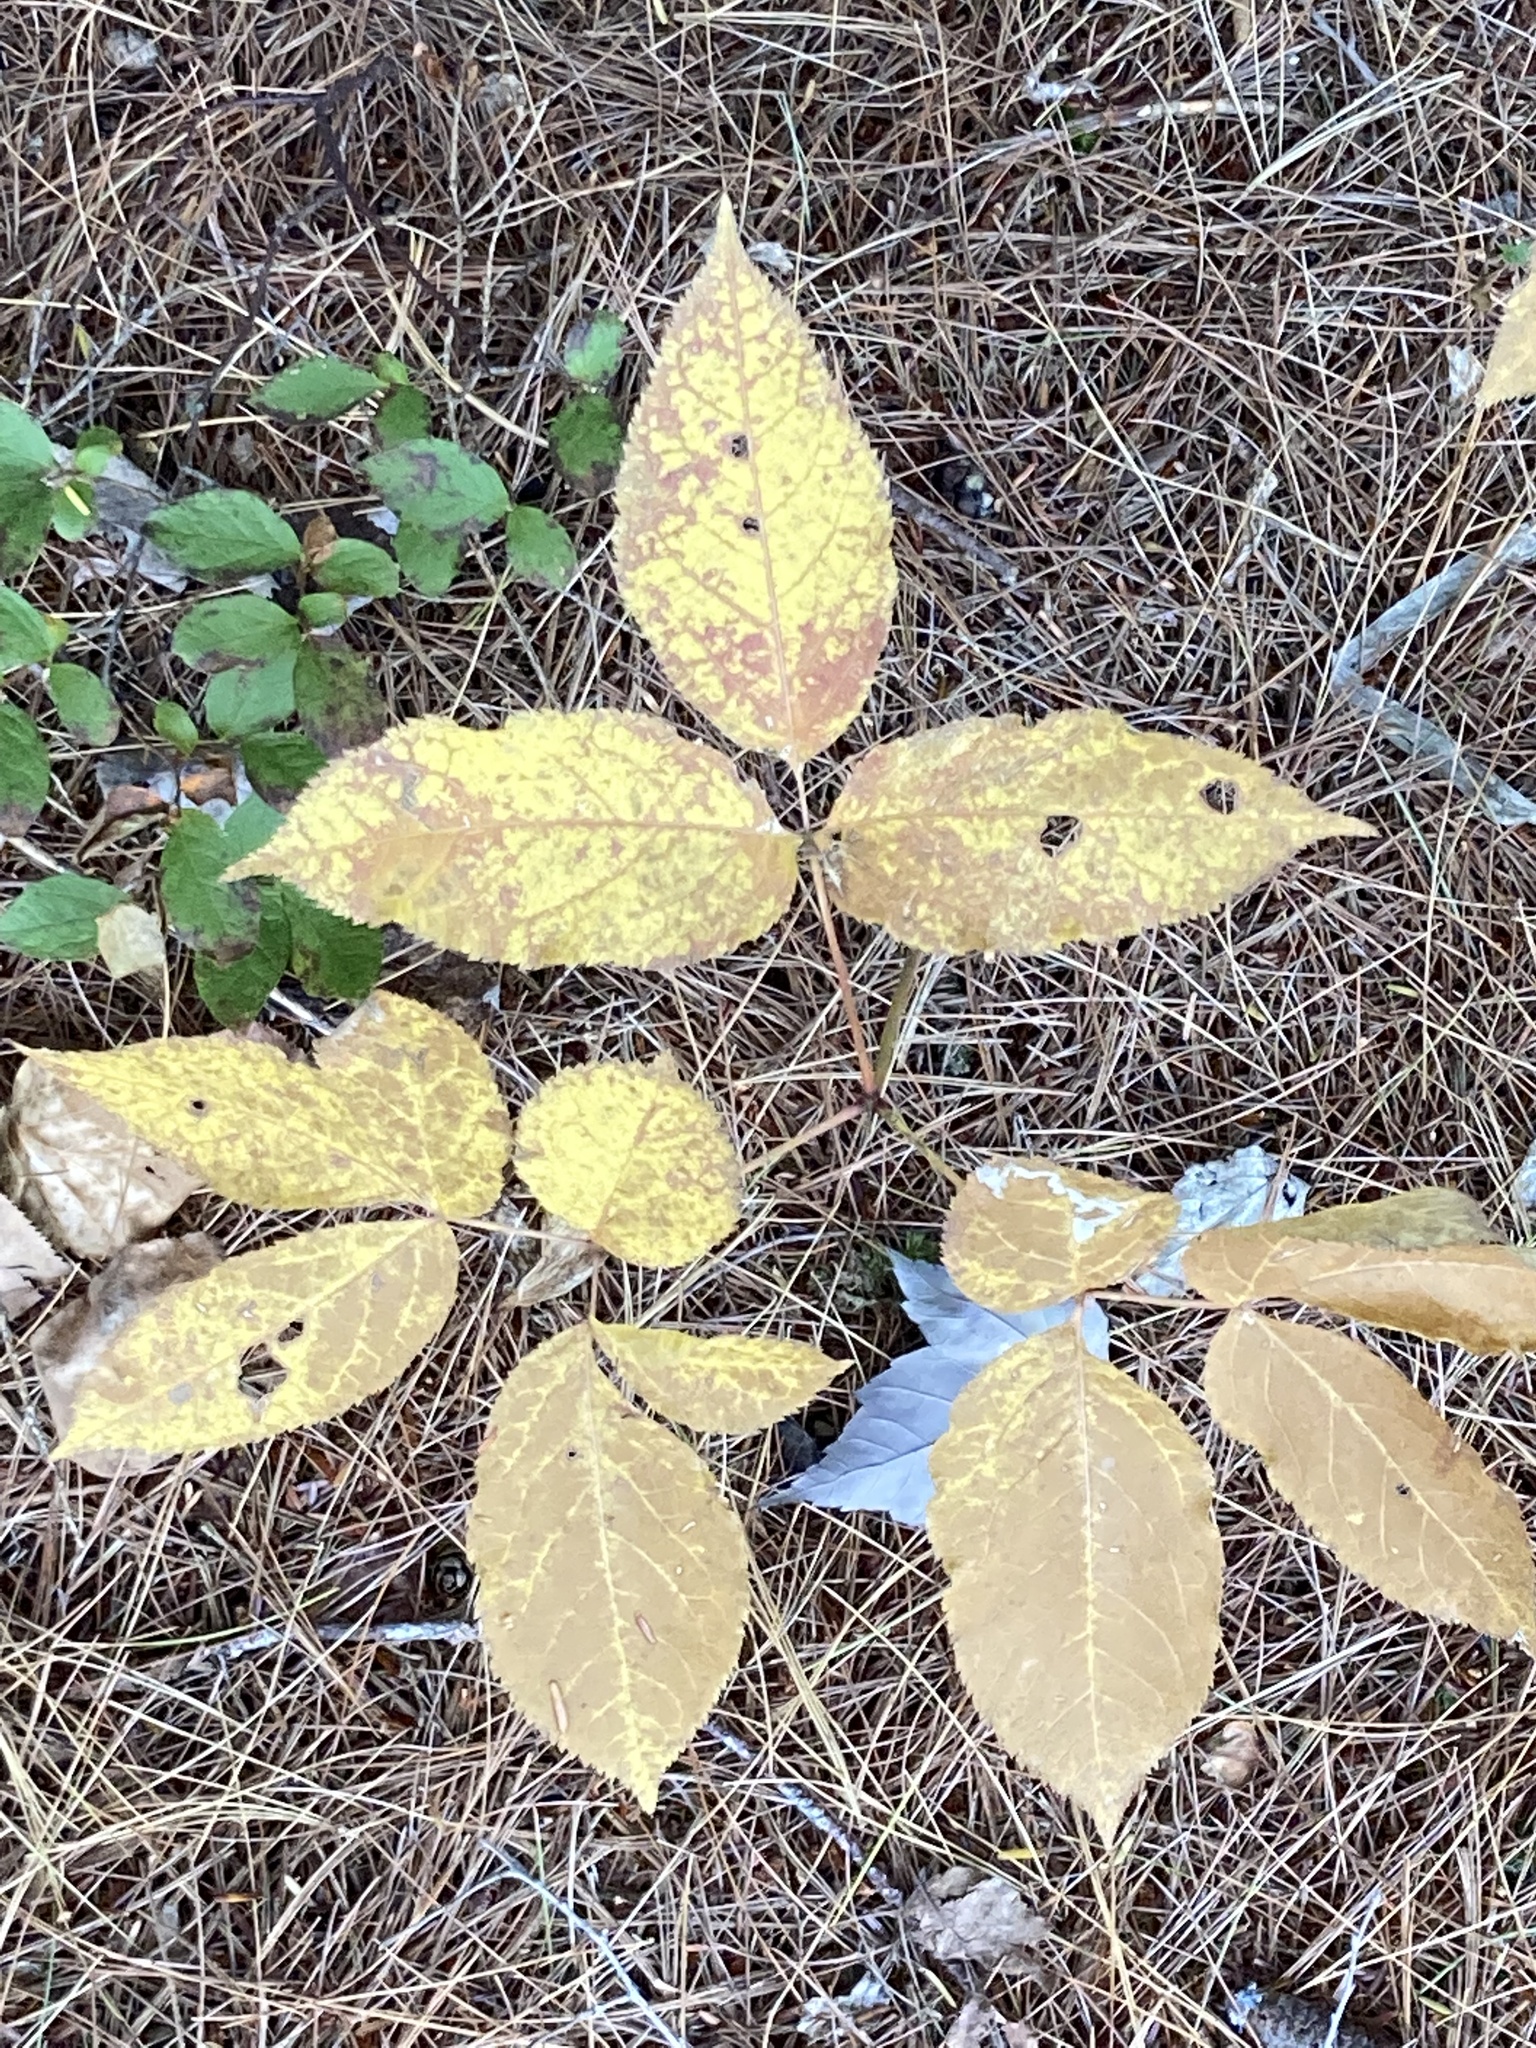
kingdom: Plantae
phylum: Tracheophyta
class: Magnoliopsida
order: Apiales
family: Araliaceae
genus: Aralia
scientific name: Aralia nudicaulis
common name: Wild sarsaparilla
